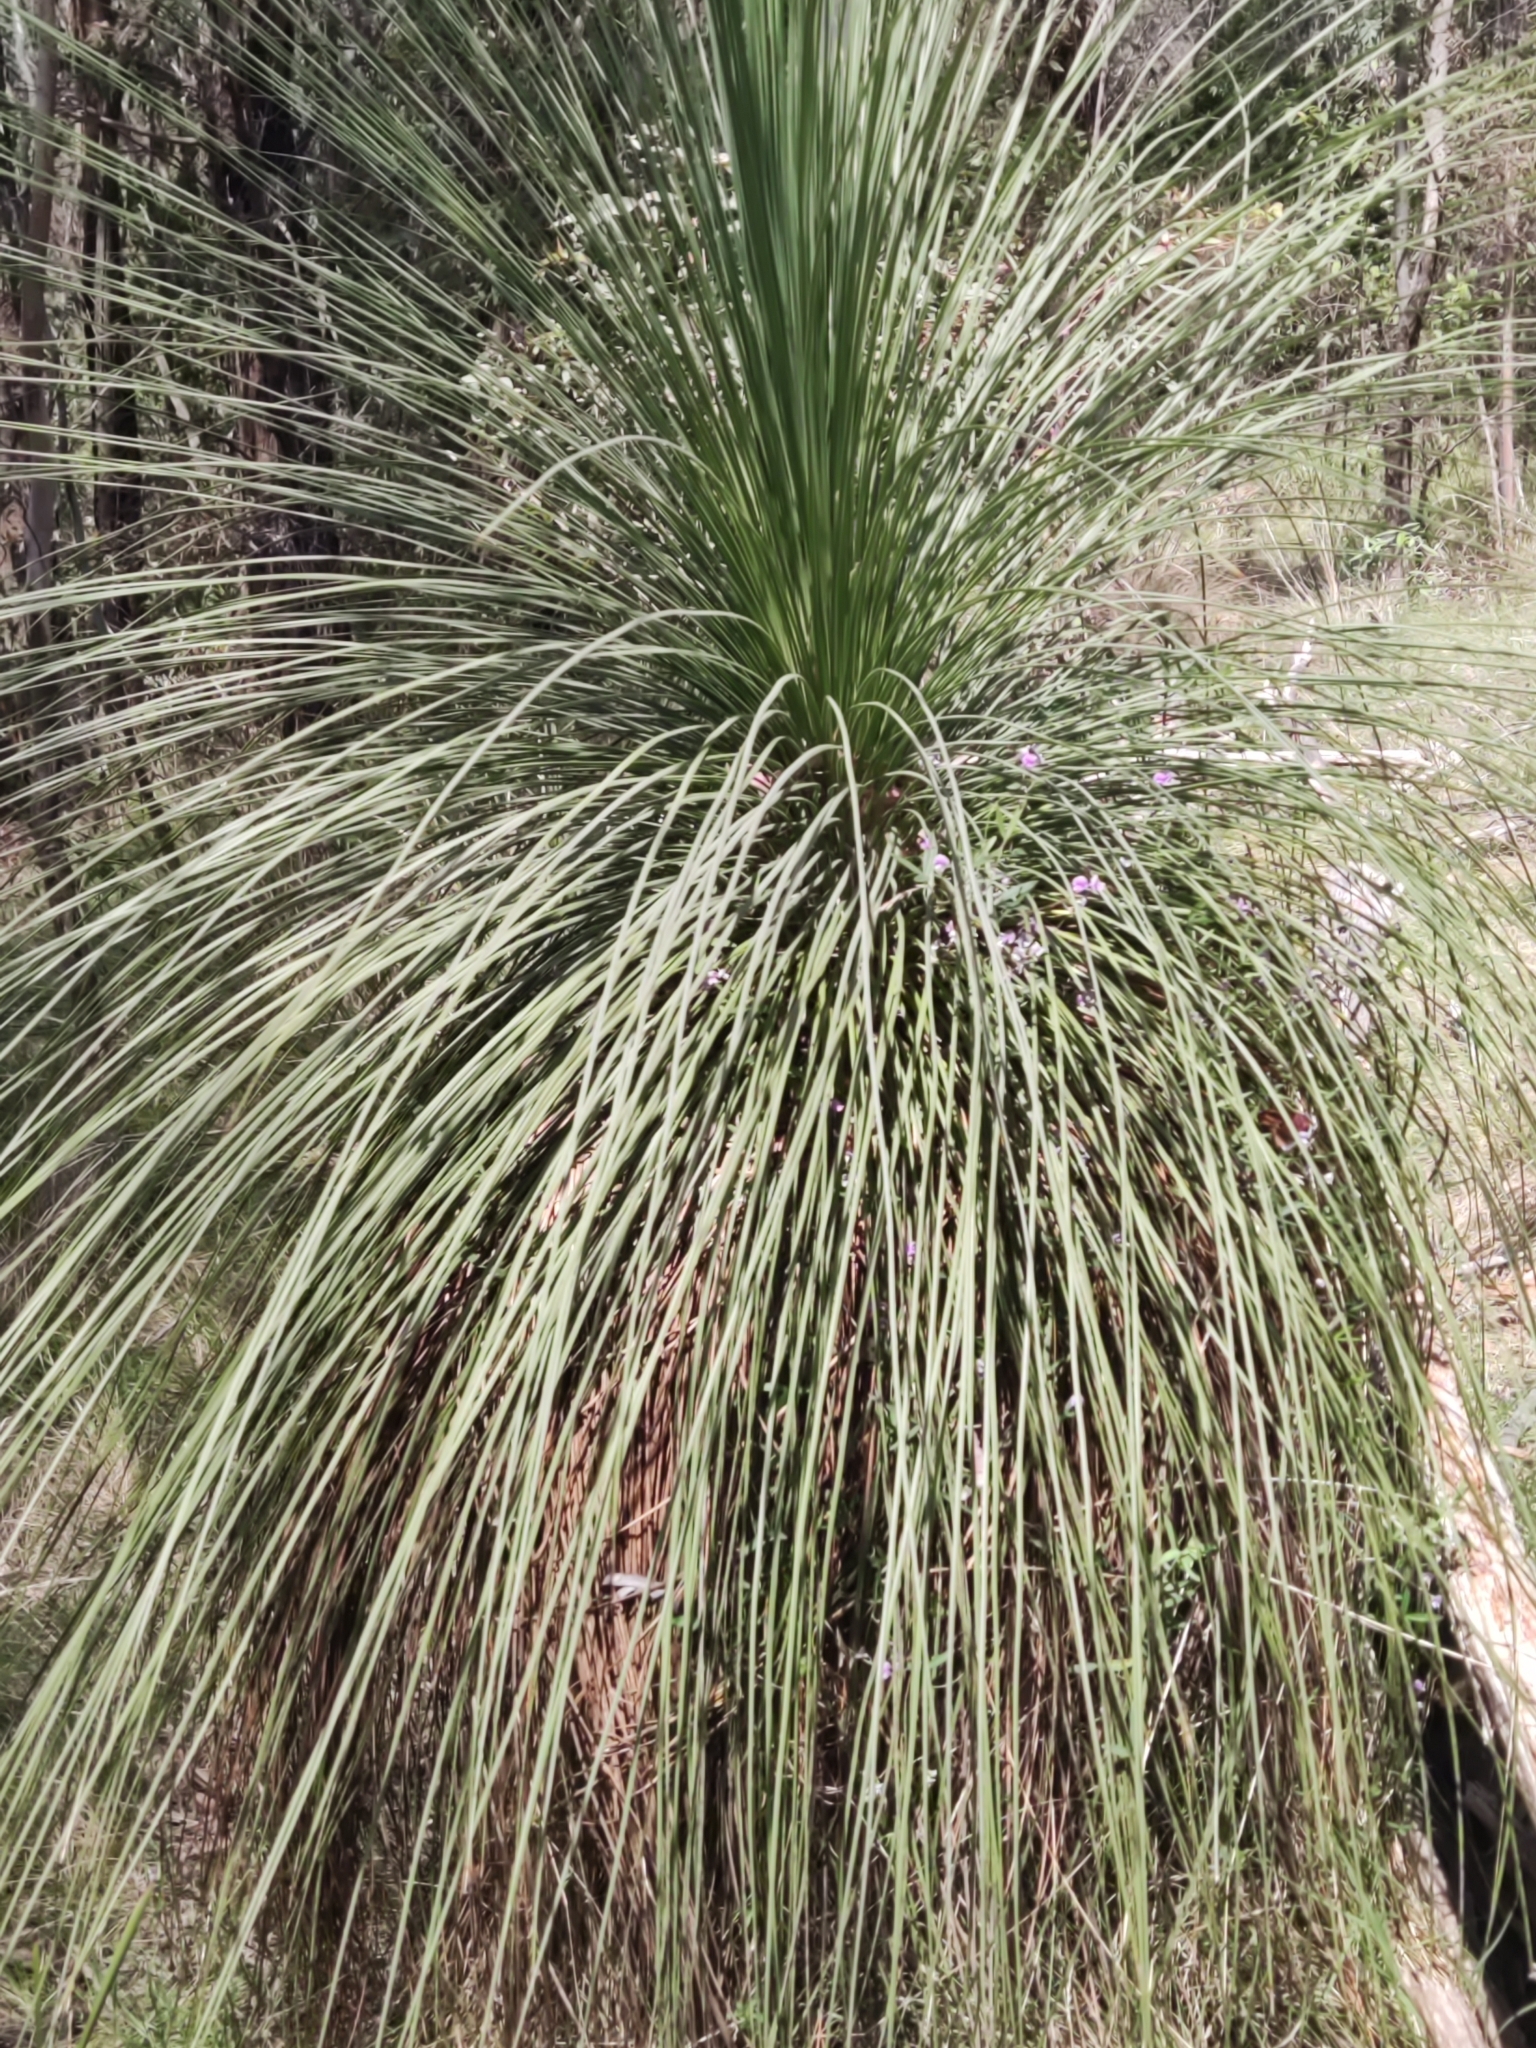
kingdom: Plantae
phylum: Tracheophyta
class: Liliopsida
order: Asparagales
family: Asphodelaceae
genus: Xanthorrhoea
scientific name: Xanthorrhoea glauca
